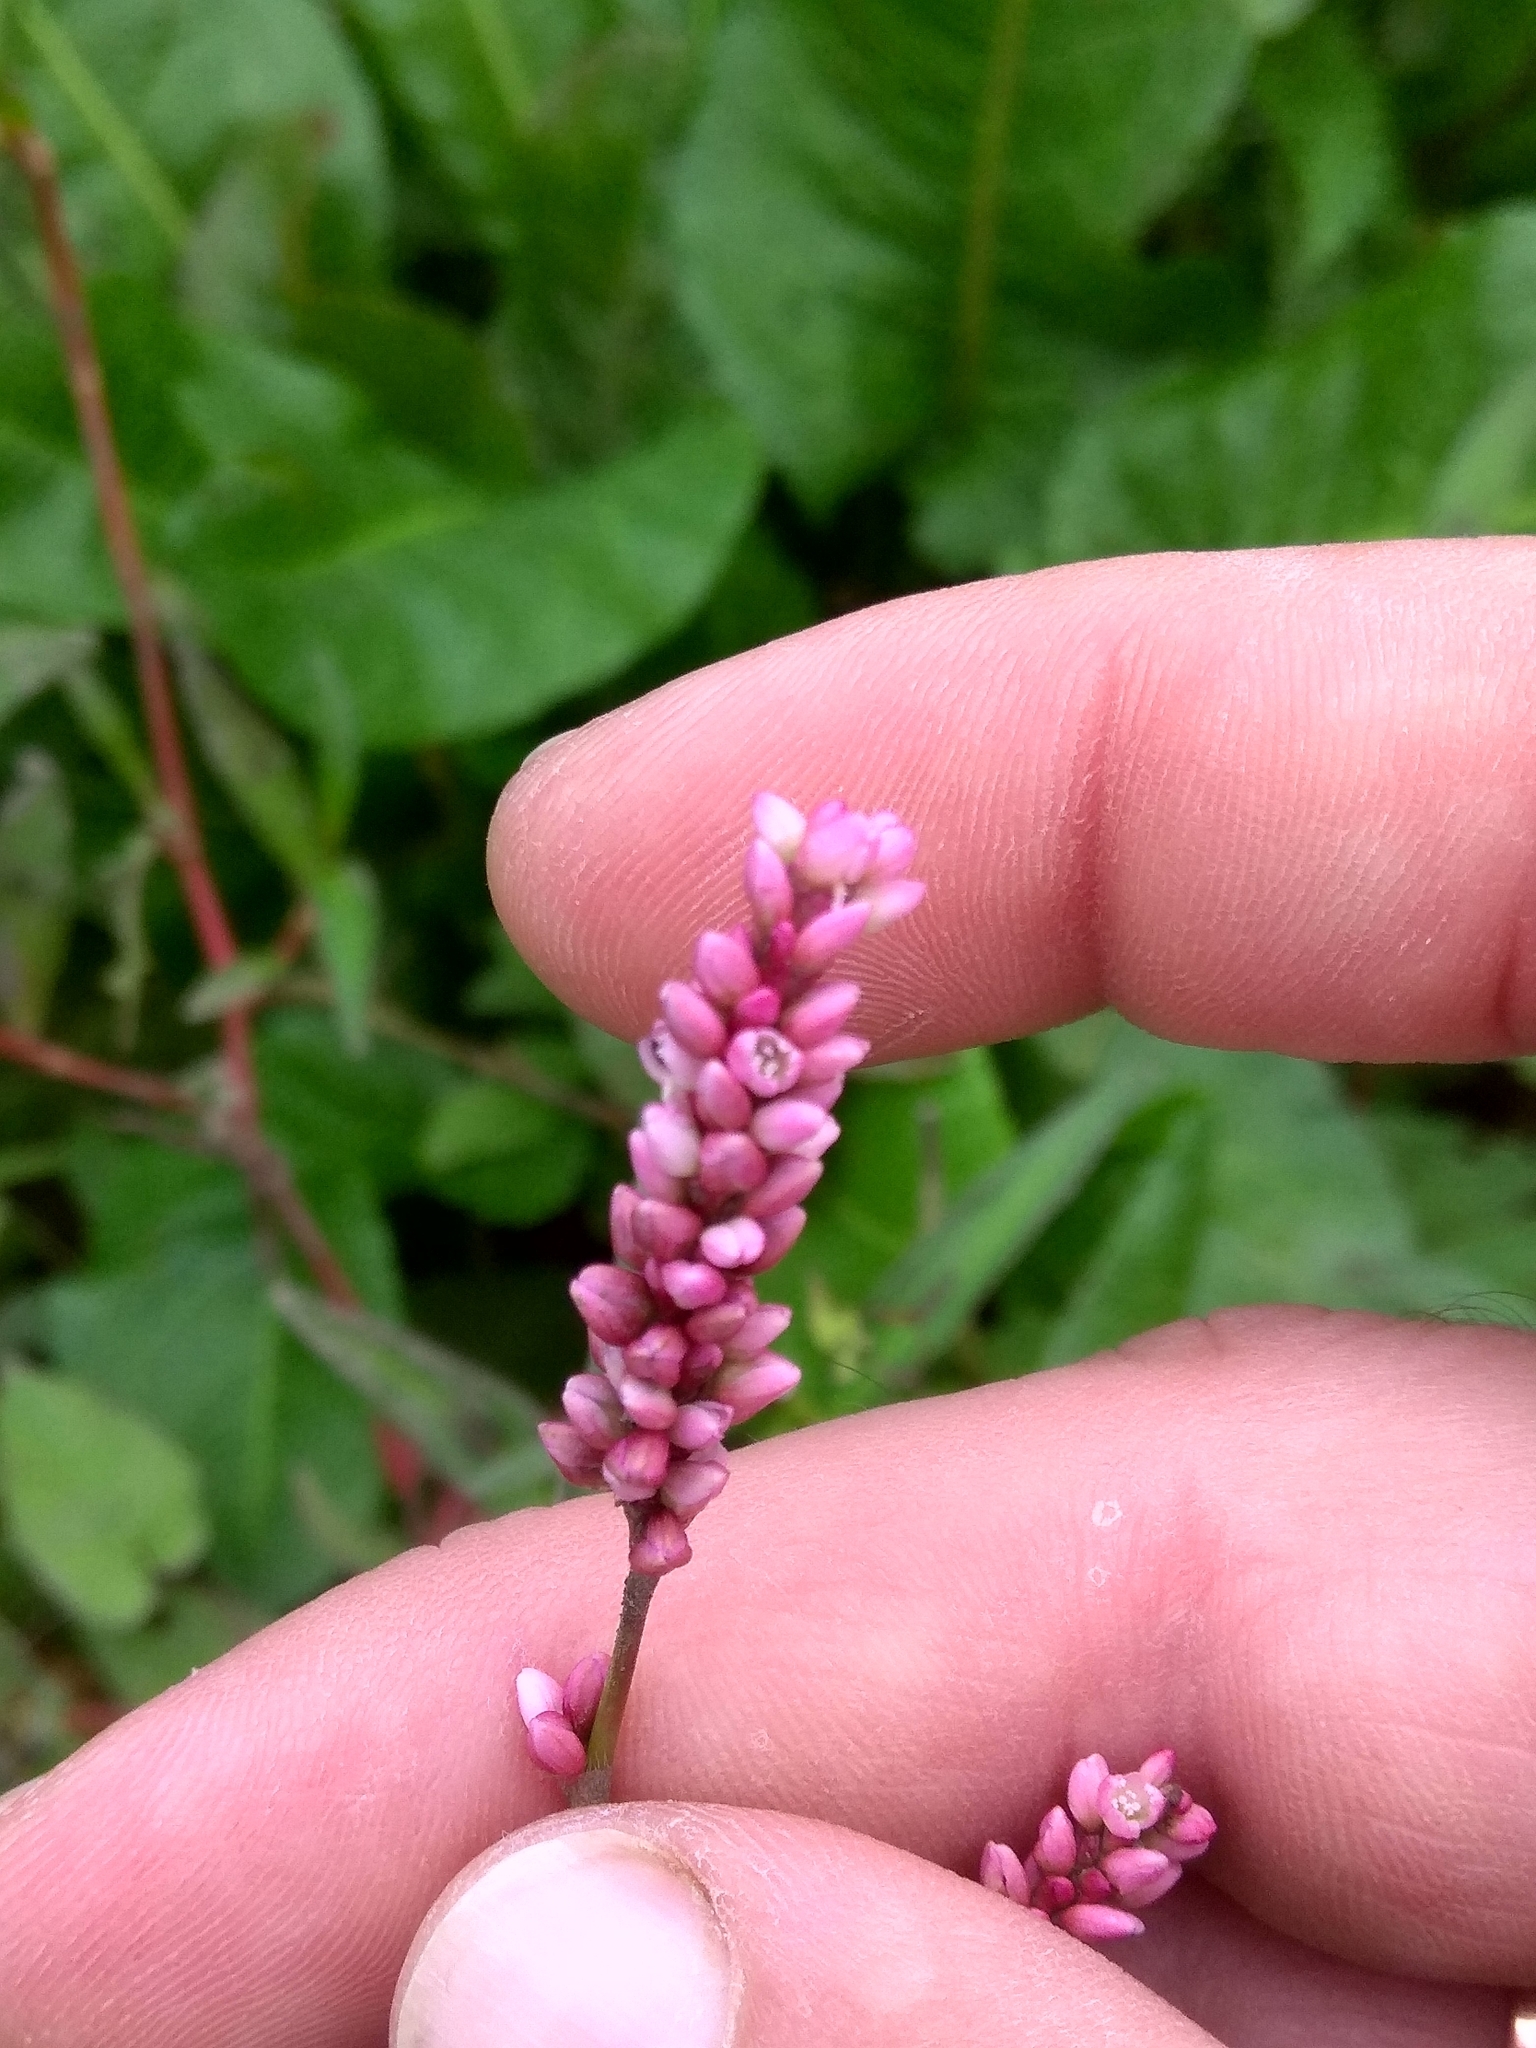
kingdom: Plantae
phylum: Tracheophyta
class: Magnoliopsida
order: Caryophyllales
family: Polygonaceae
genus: Persicaria
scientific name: Persicaria maculosa
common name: Redshank
